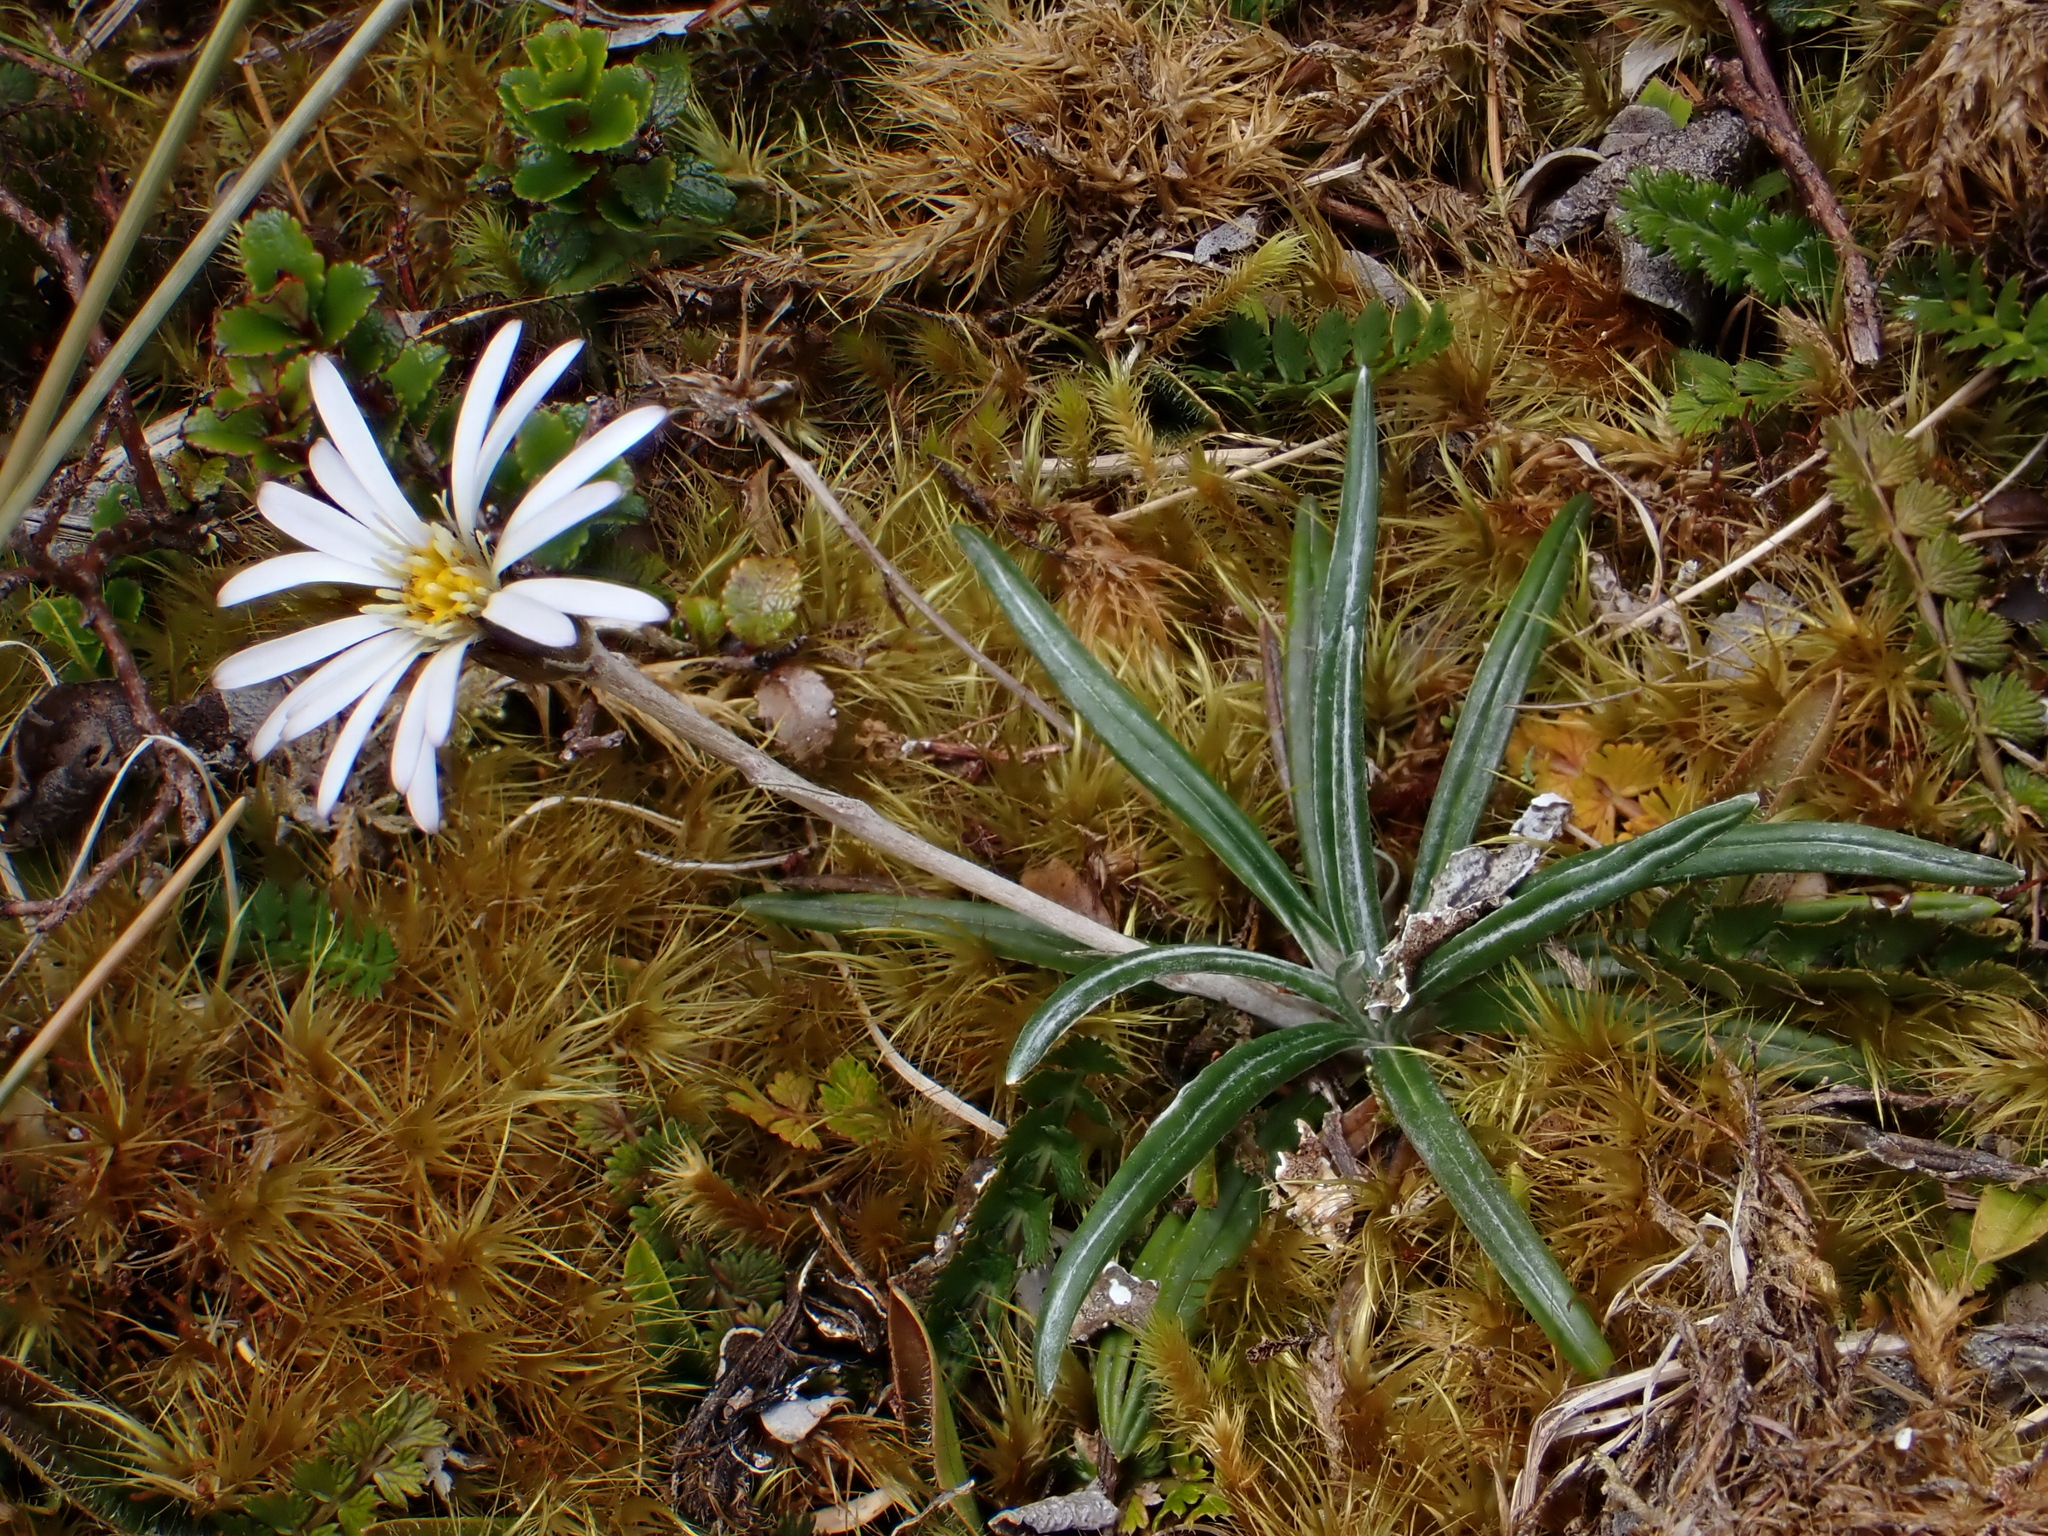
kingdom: Plantae
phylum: Tracheophyta
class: Magnoliopsida
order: Asterales
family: Asteraceae
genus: Celmisia
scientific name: Celmisia major
